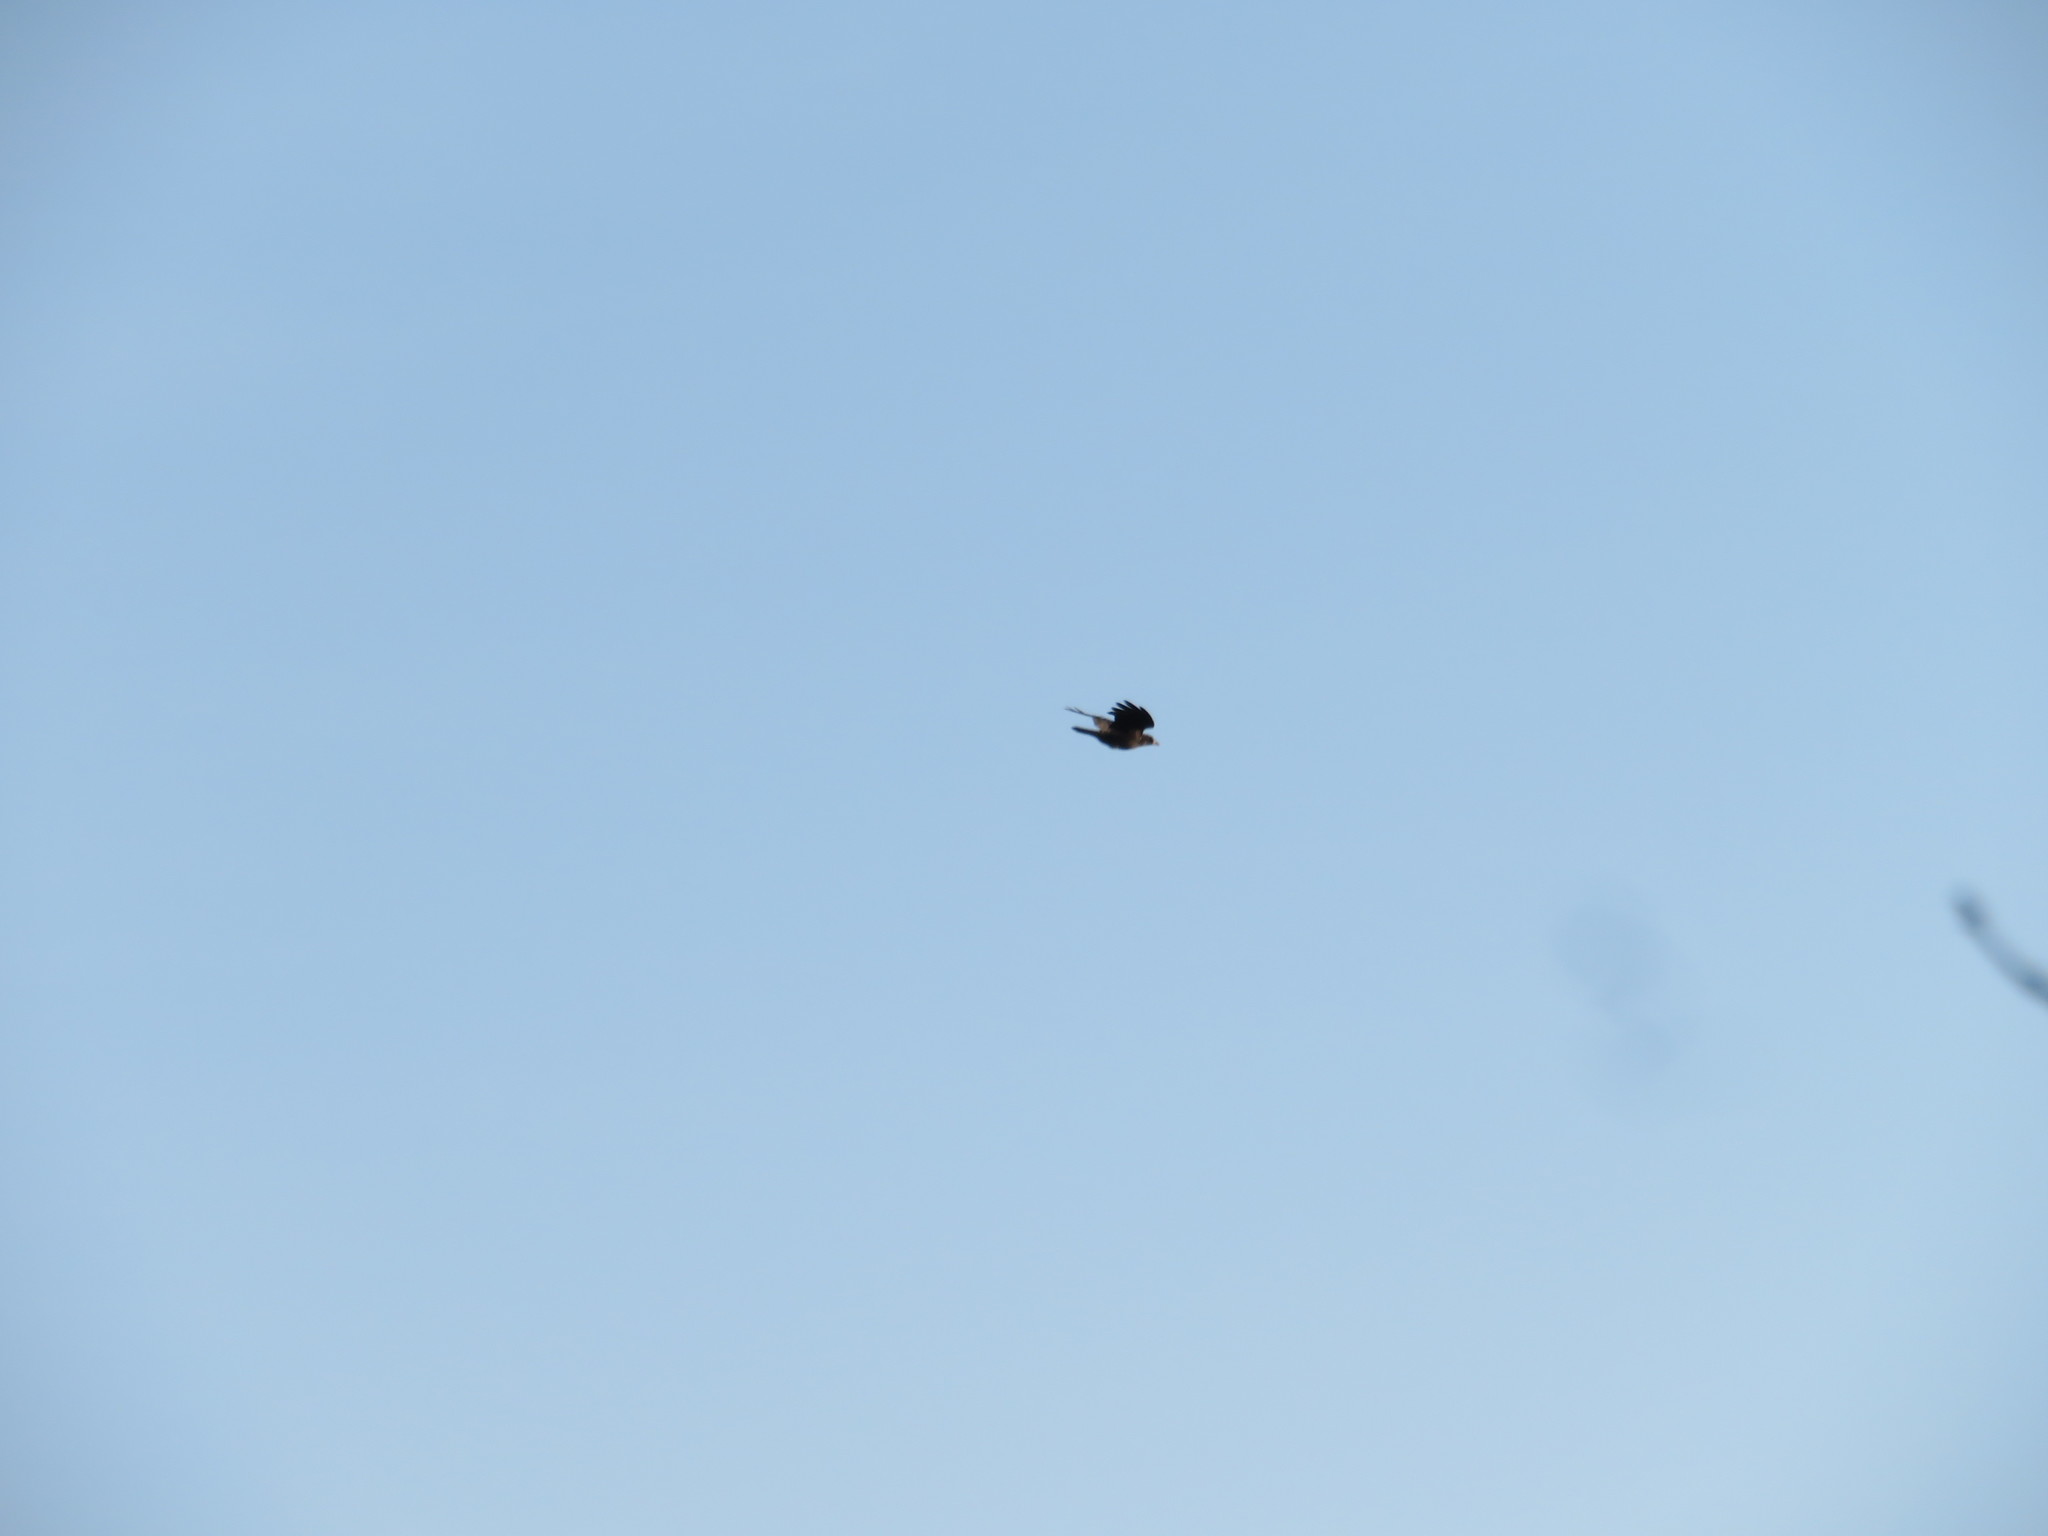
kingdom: Animalia
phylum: Chordata
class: Aves
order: Passeriformes
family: Corvidae
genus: Corvus
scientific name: Corvus brachyrhynchos
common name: American crow
